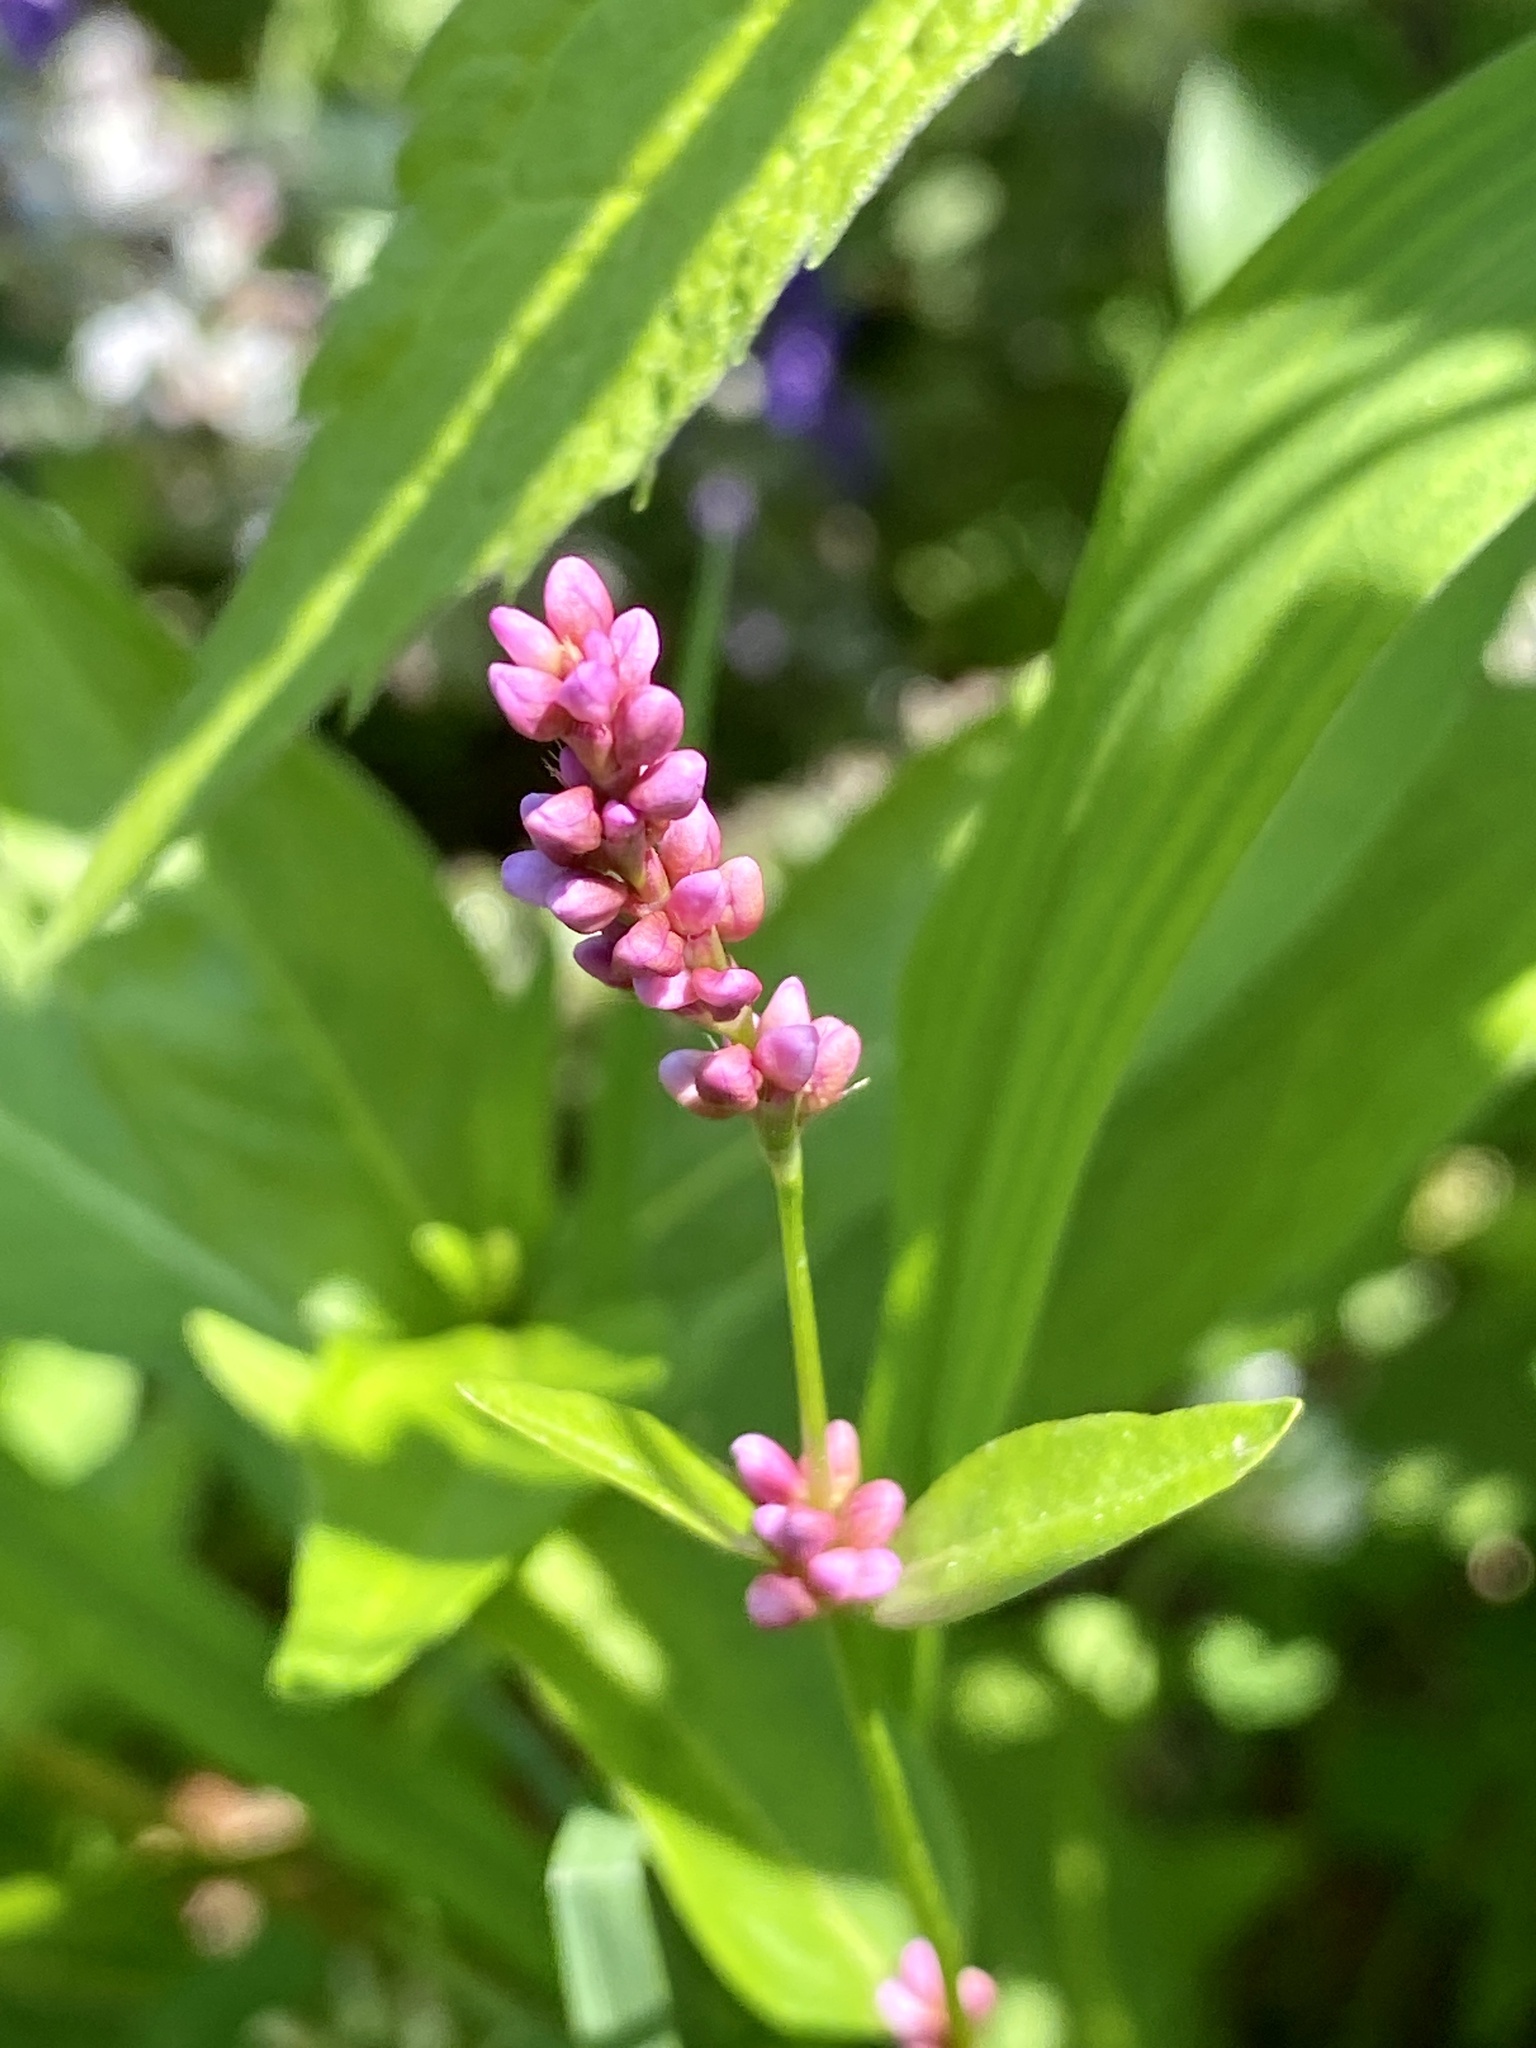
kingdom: Plantae
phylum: Tracheophyta
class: Magnoliopsida
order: Caryophyllales
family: Polygonaceae
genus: Persicaria
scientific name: Persicaria longiseta
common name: Bristly lady's-thumb
